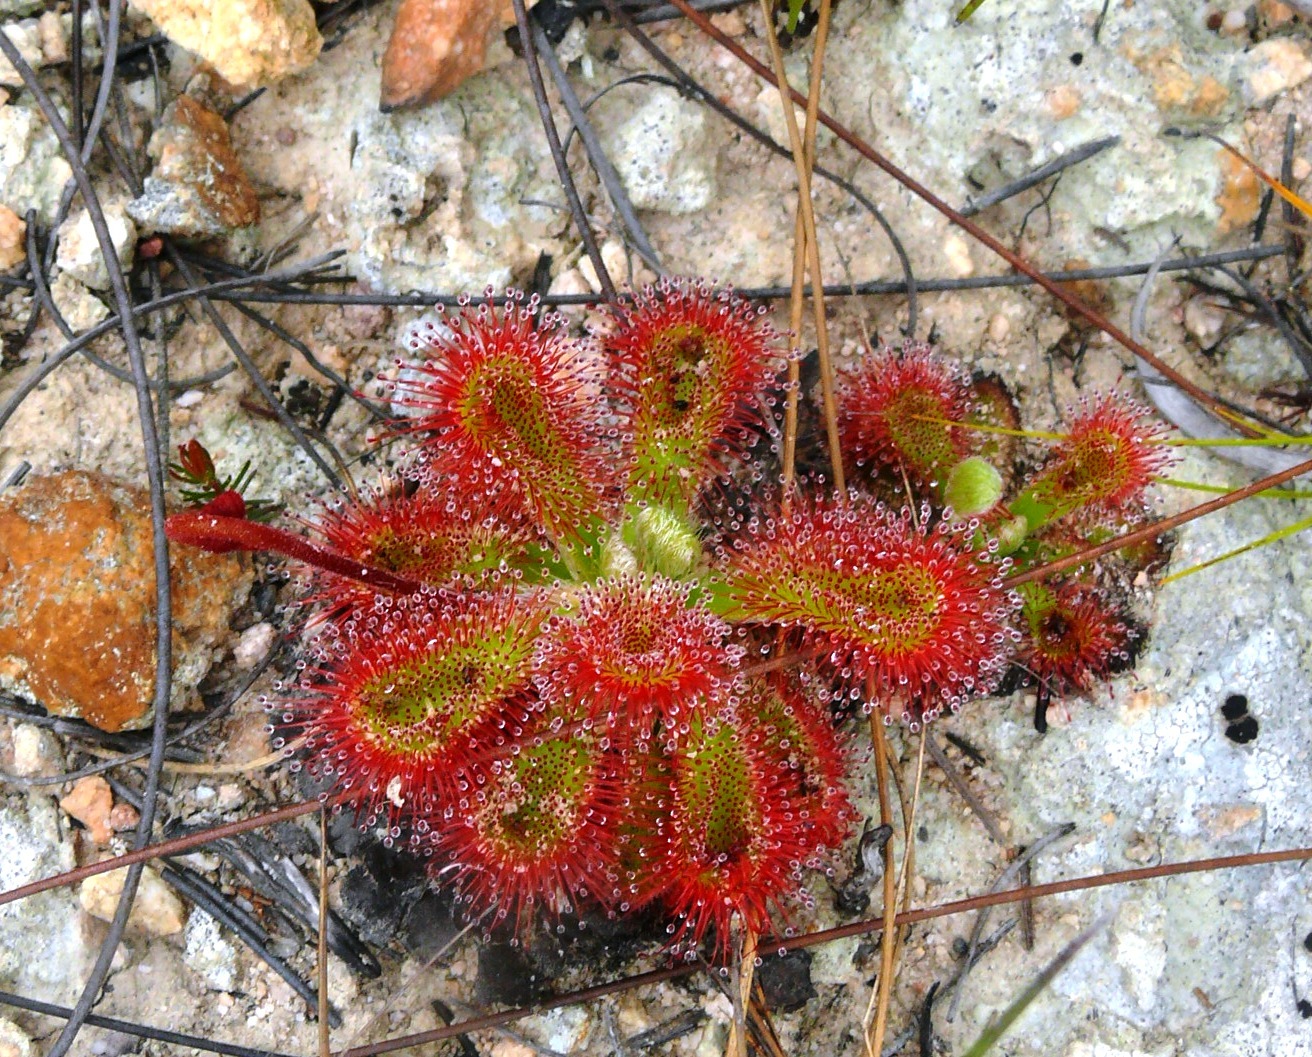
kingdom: Plantae
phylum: Tracheophyta
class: Magnoliopsida
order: Caryophyllales
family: Droseraceae
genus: Drosera
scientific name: Drosera aliciae
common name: Alice sundew
